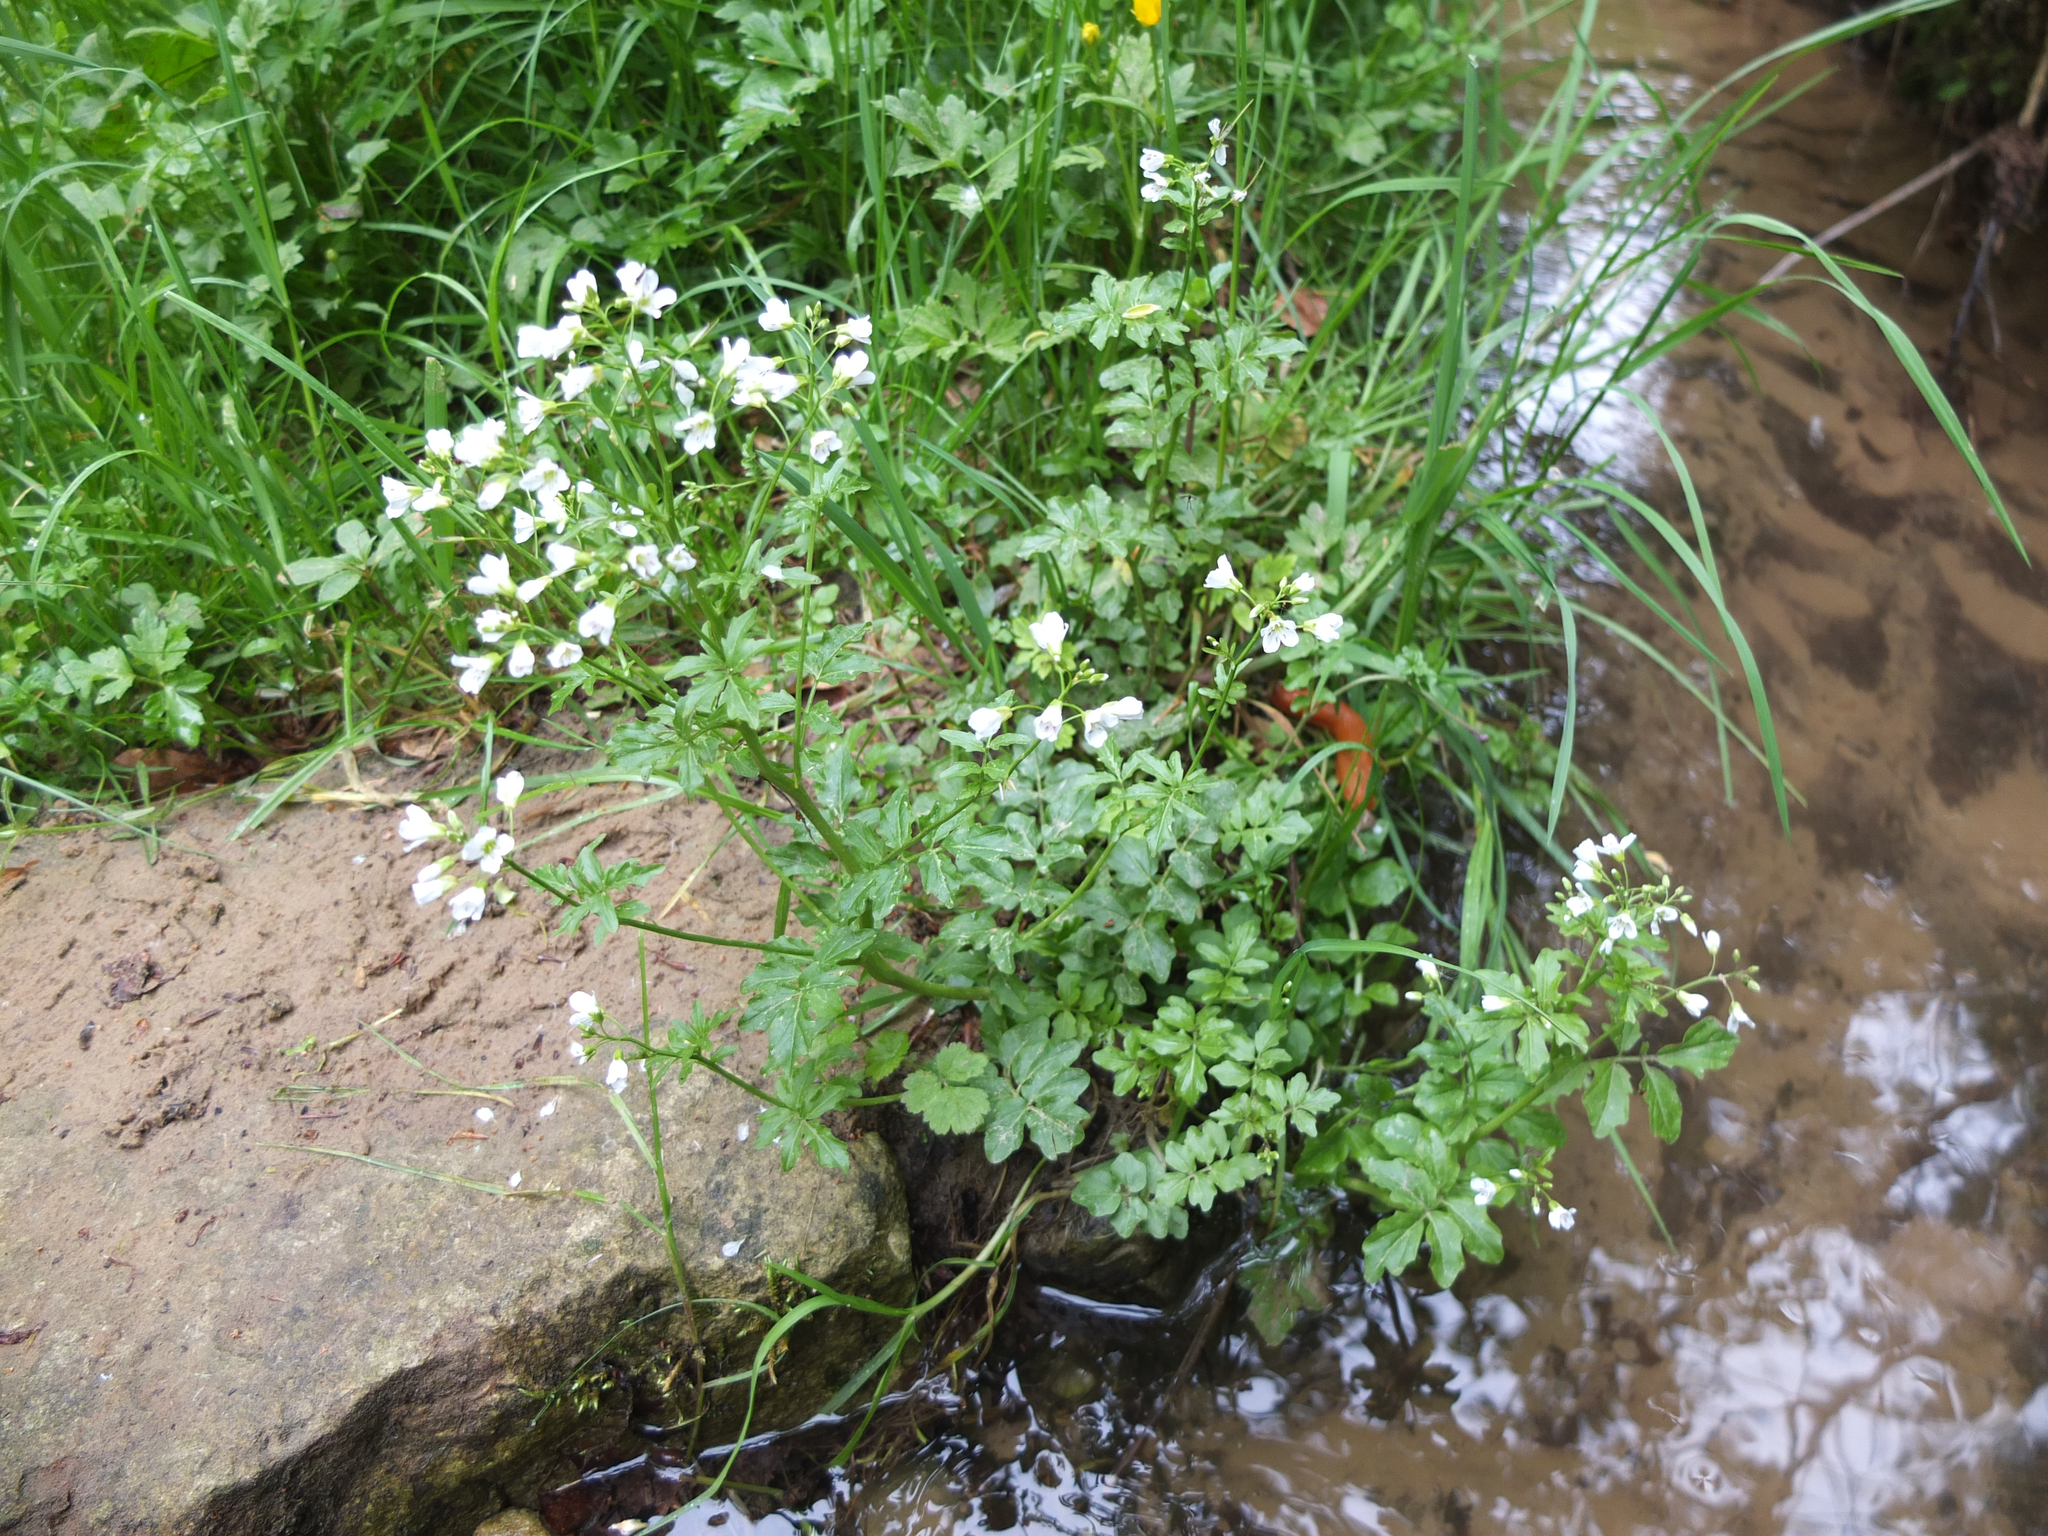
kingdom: Plantae
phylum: Tracheophyta
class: Magnoliopsida
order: Brassicales
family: Brassicaceae
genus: Cardamine
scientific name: Cardamine amara
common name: Large bitter-cress
